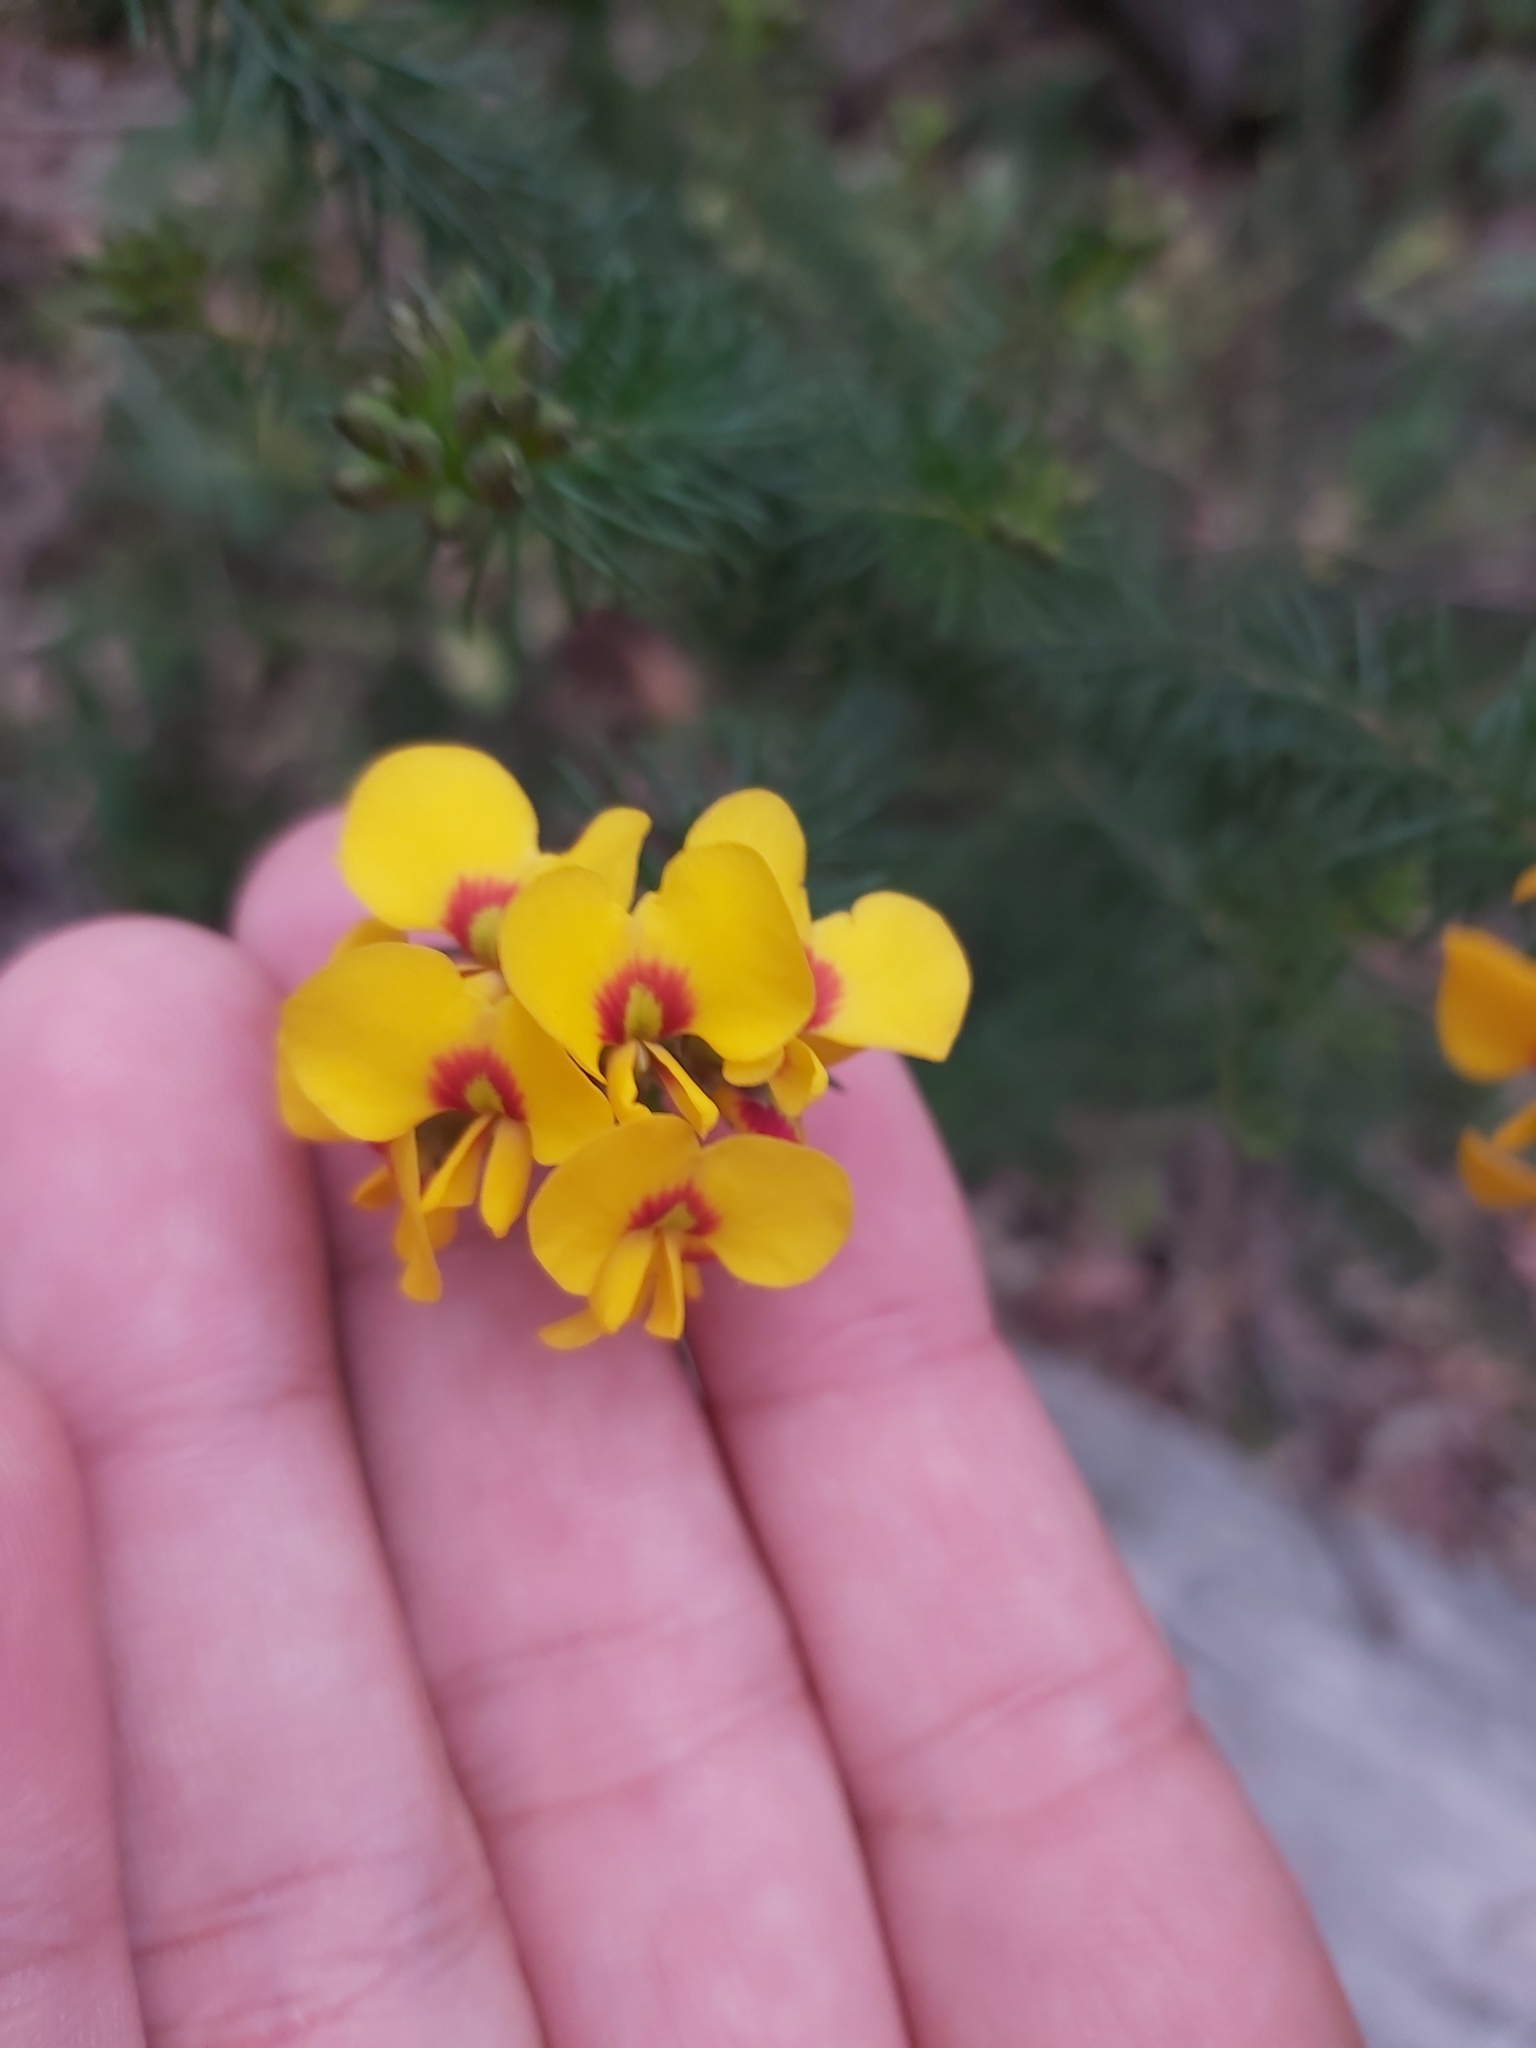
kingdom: Plantae
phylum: Tracheophyta
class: Magnoliopsida
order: Fabales
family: Fabaceae
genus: Dillwynia
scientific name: Dillwynia retorta
